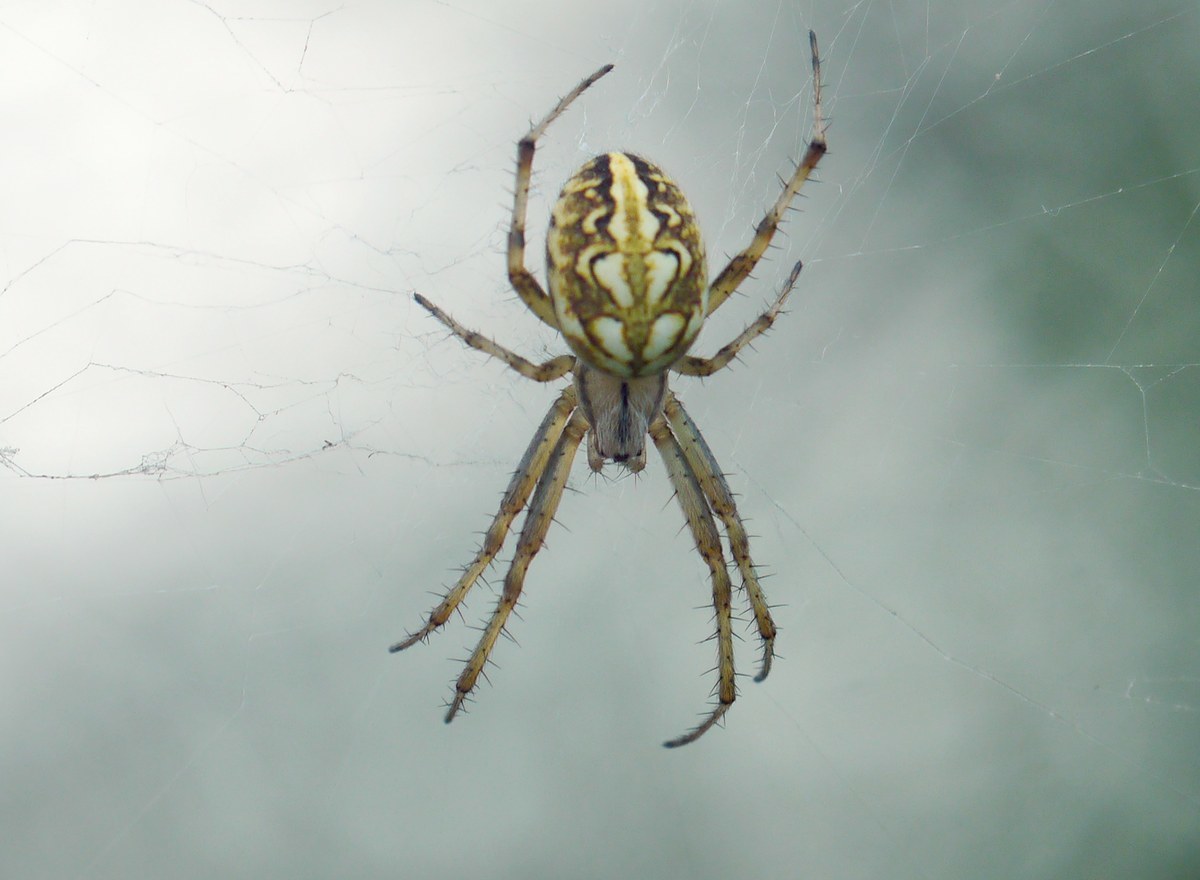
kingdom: Animalia
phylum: Arthropoda
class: Arachnida
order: Araneae
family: Araneidae
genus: Neoscona
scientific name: Neoscona adianta
